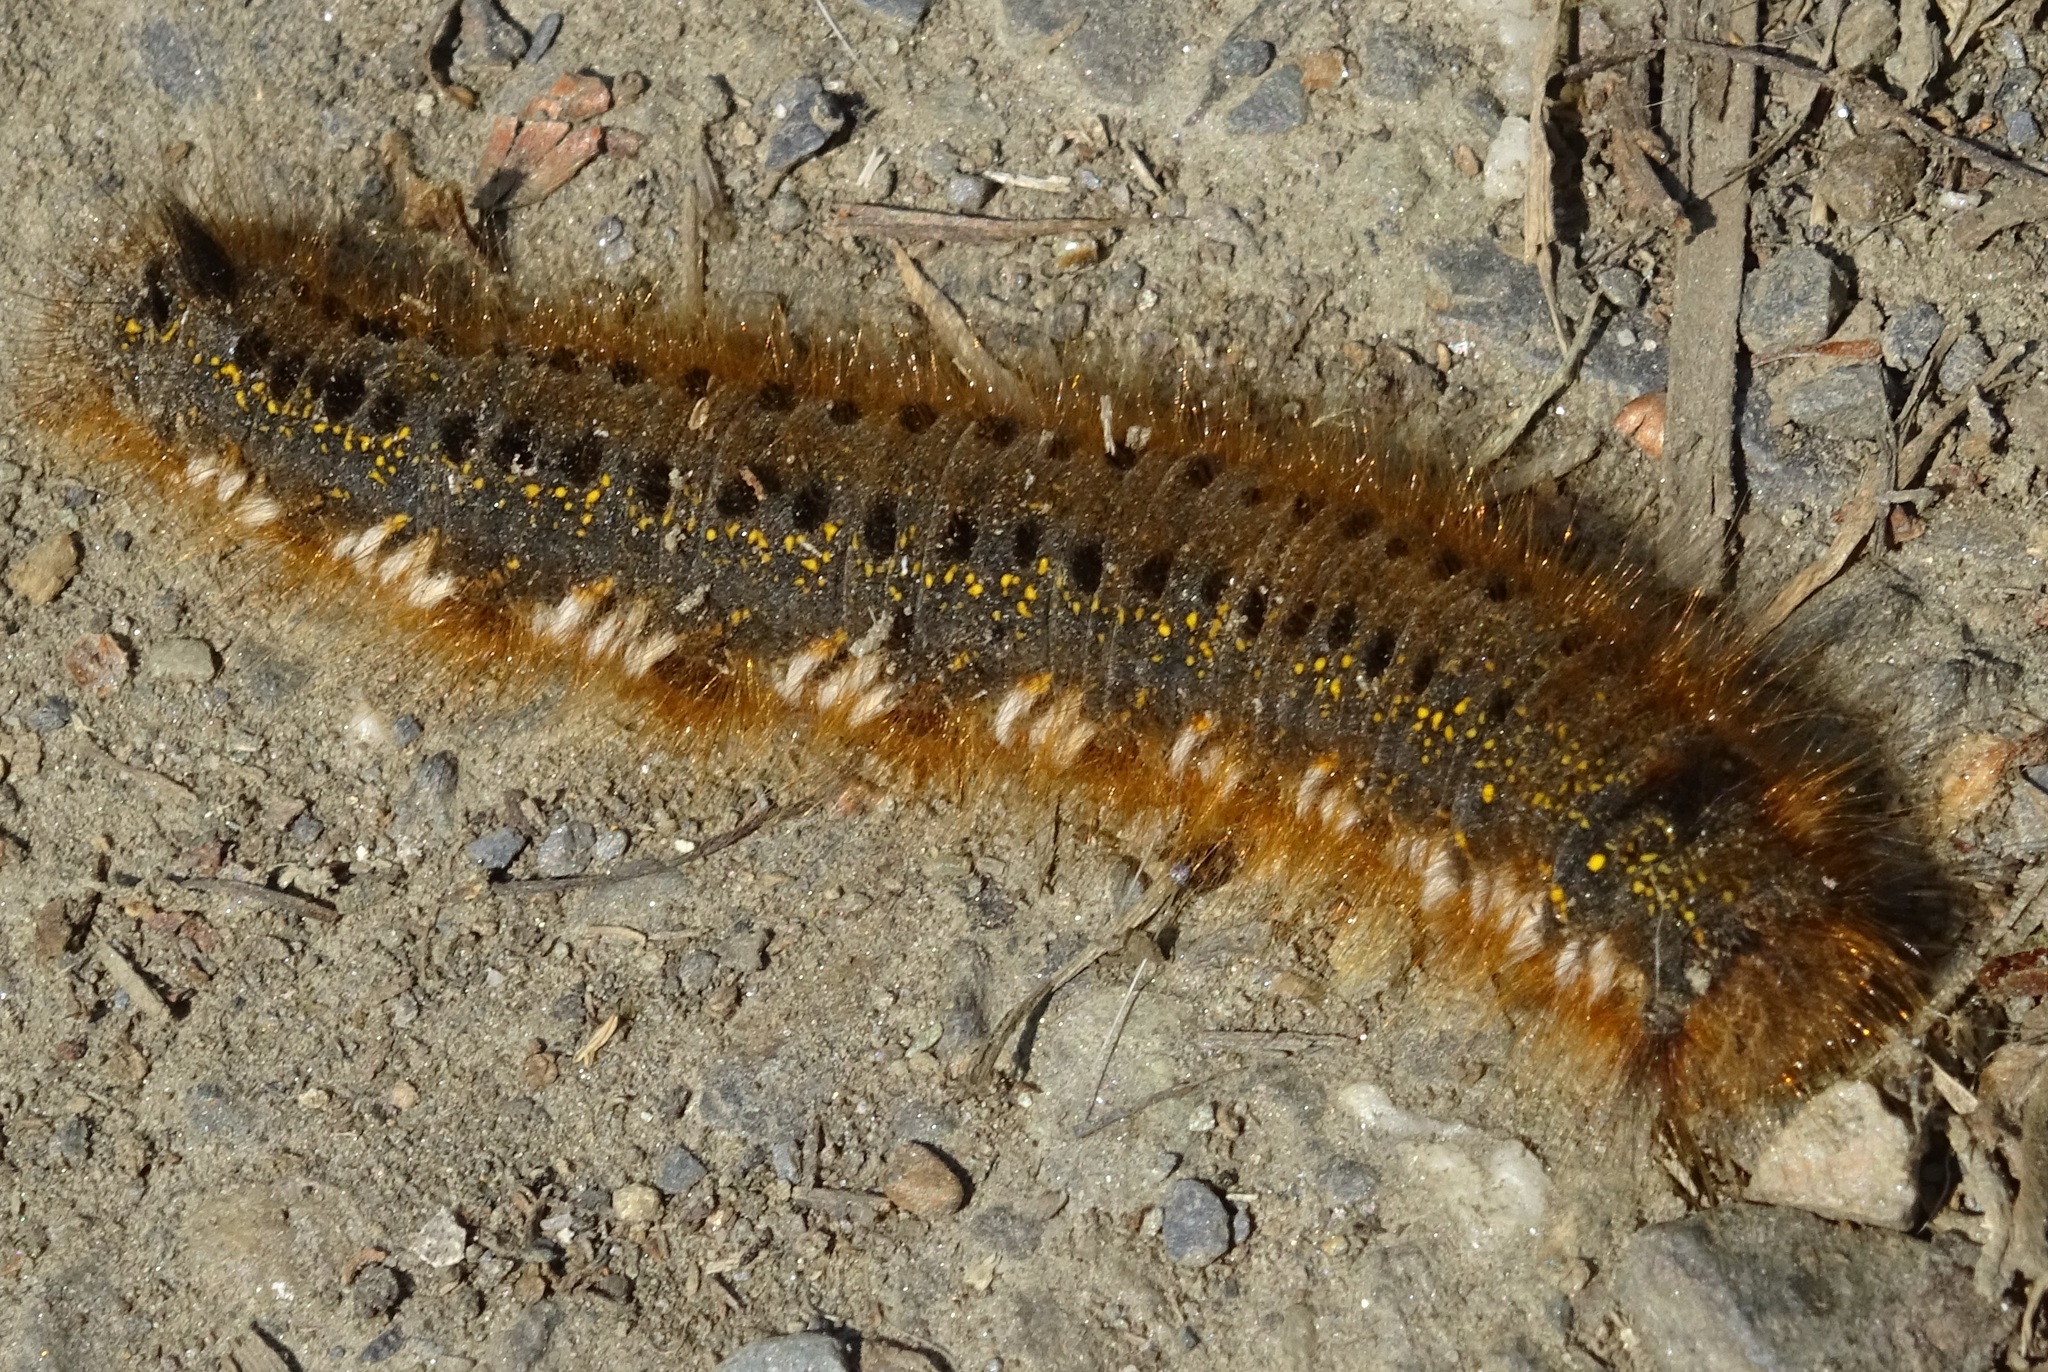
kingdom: Animalia
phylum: Arthropoda
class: Insecta
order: Lepidoptera
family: Lasiocampidae
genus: Euthrix
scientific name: Euthrix potatoria
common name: Drinker
